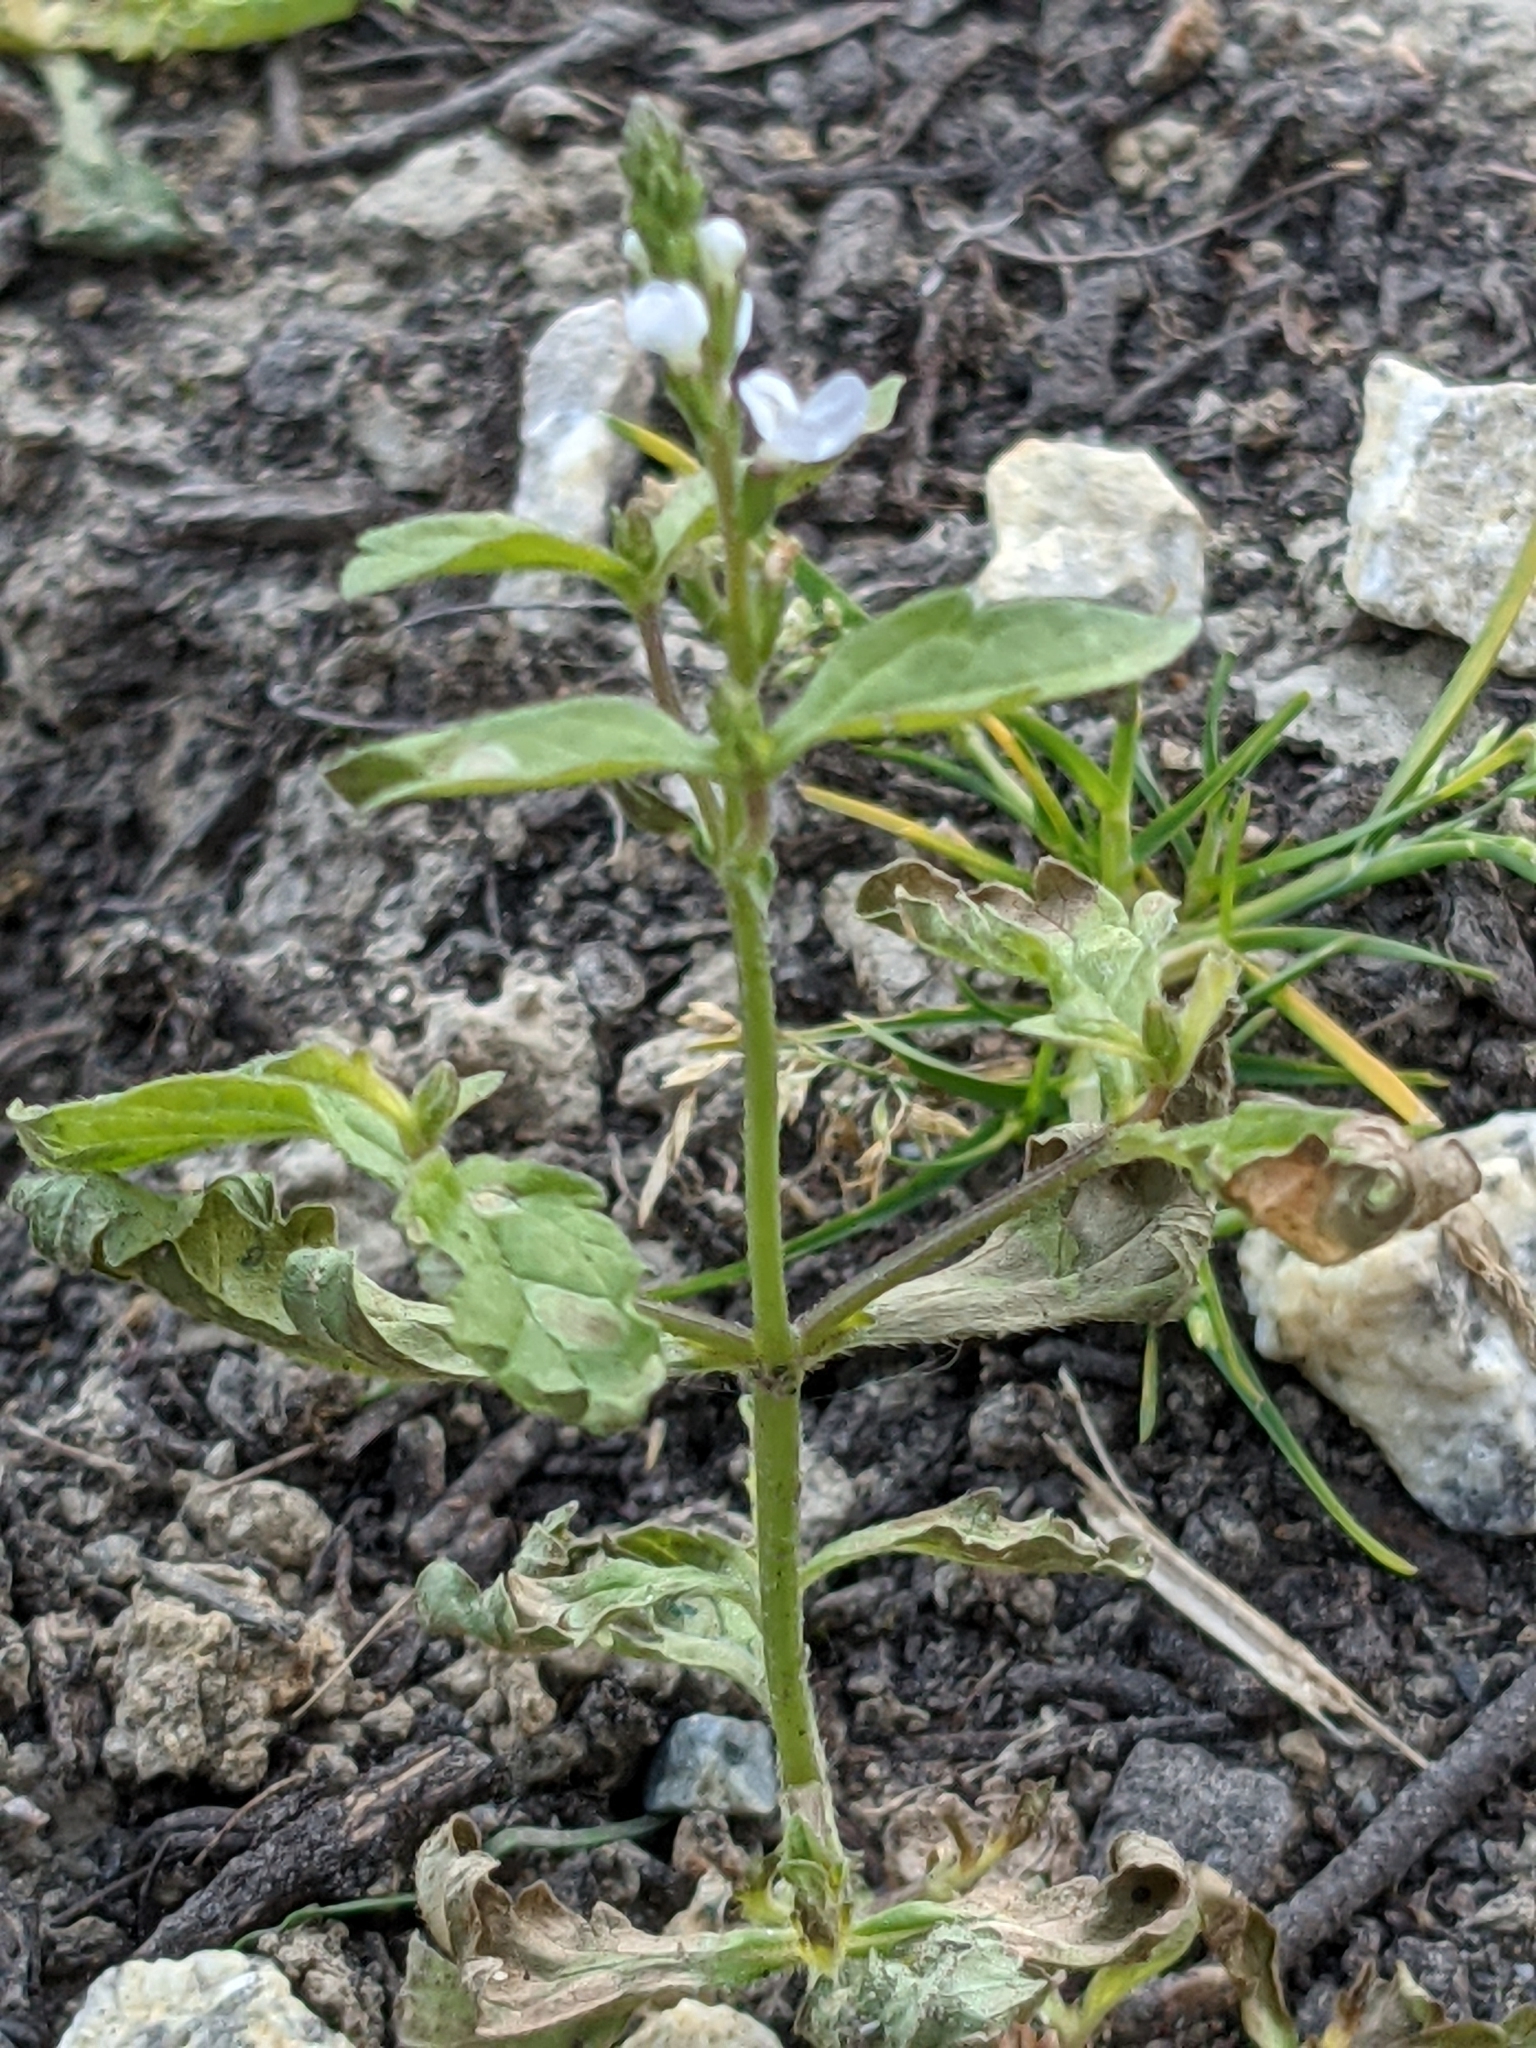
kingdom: Plantae
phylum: Tracheophyta
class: Magnoliopsida
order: Lamiales
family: Verbenaceae
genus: Verbena
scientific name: Verbena officinalis
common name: Vervain
